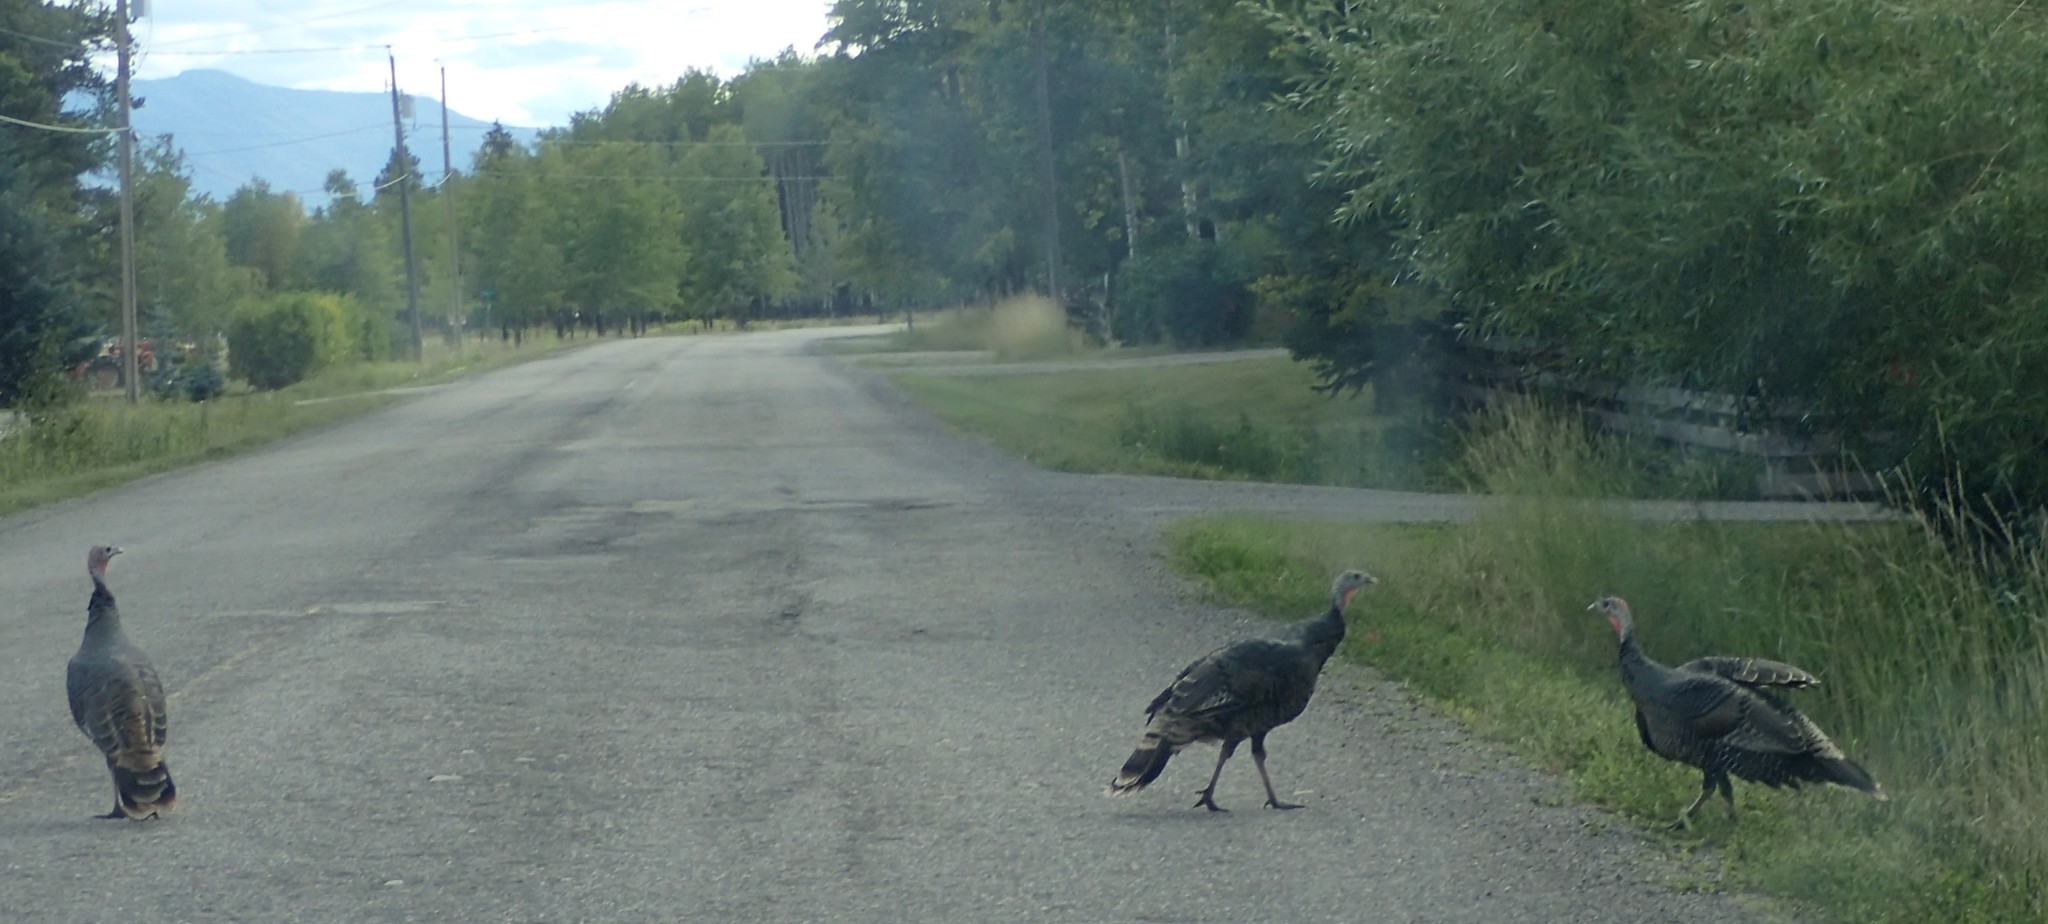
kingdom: Animalia
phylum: Chordata
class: Aves
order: Galliformes
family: Phasianidae
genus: Meleagris
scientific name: Meleagris gallopavo
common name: Wild turkey
